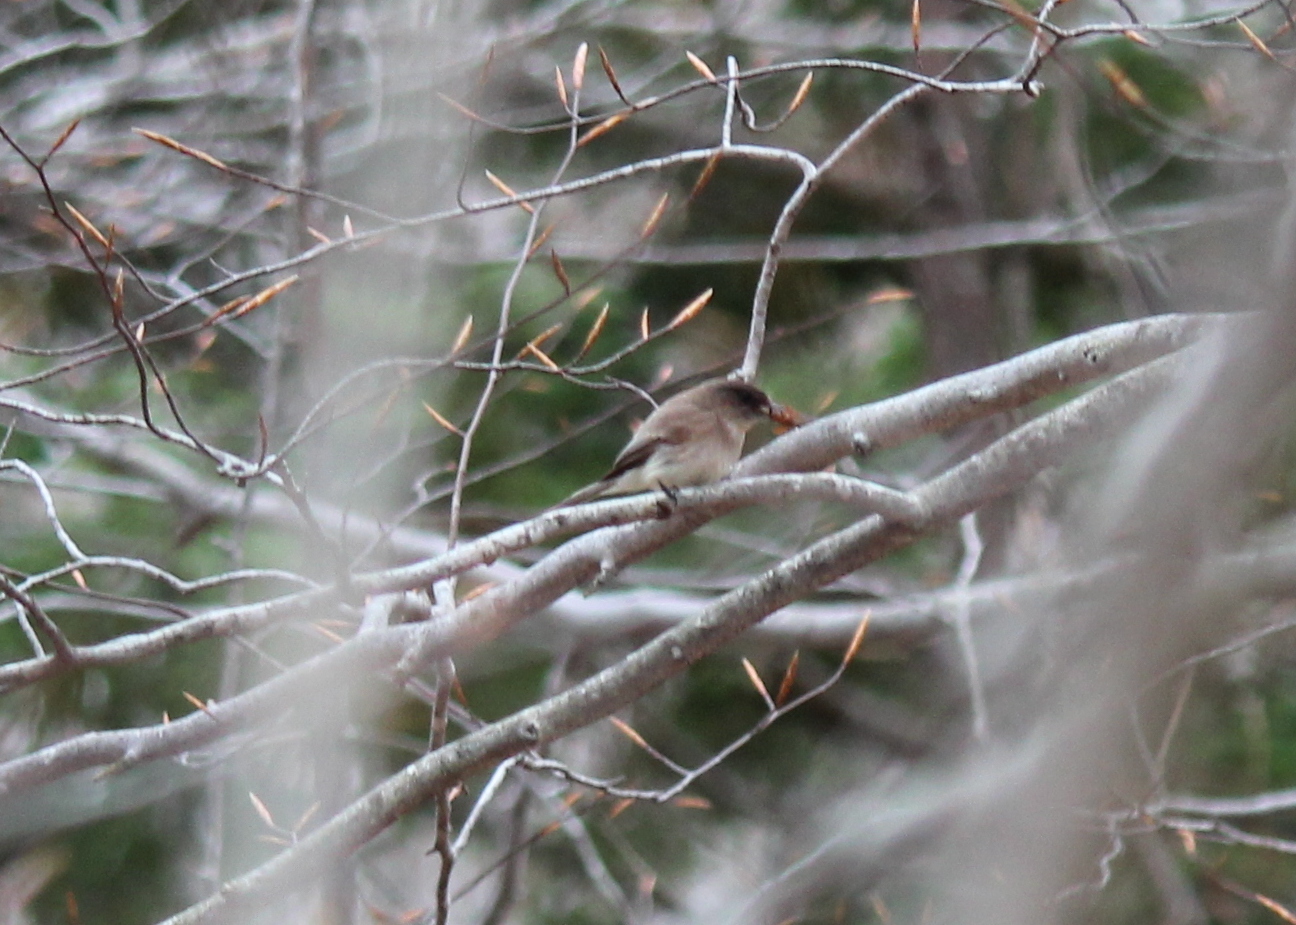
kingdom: Animalia
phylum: Chordata
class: Aves
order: Passeriformes
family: Tyrannidae
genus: Sayornis
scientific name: Sayornis phoebe
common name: Eastern phoebe
